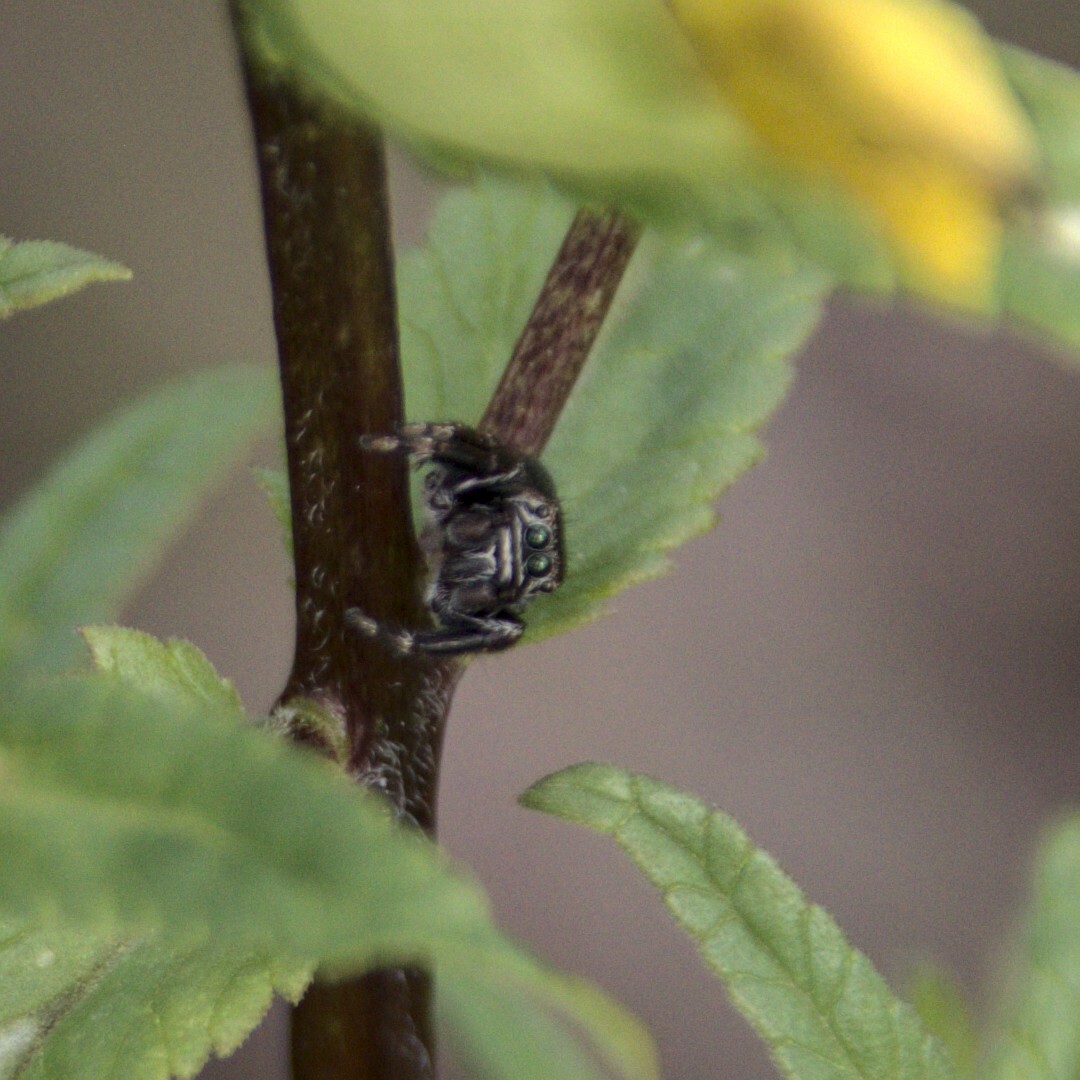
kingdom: Animalia
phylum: Arthropoda
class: Arachnida
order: Araneae
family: Salticidae
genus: Evarcha
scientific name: Evarcha arcuata
